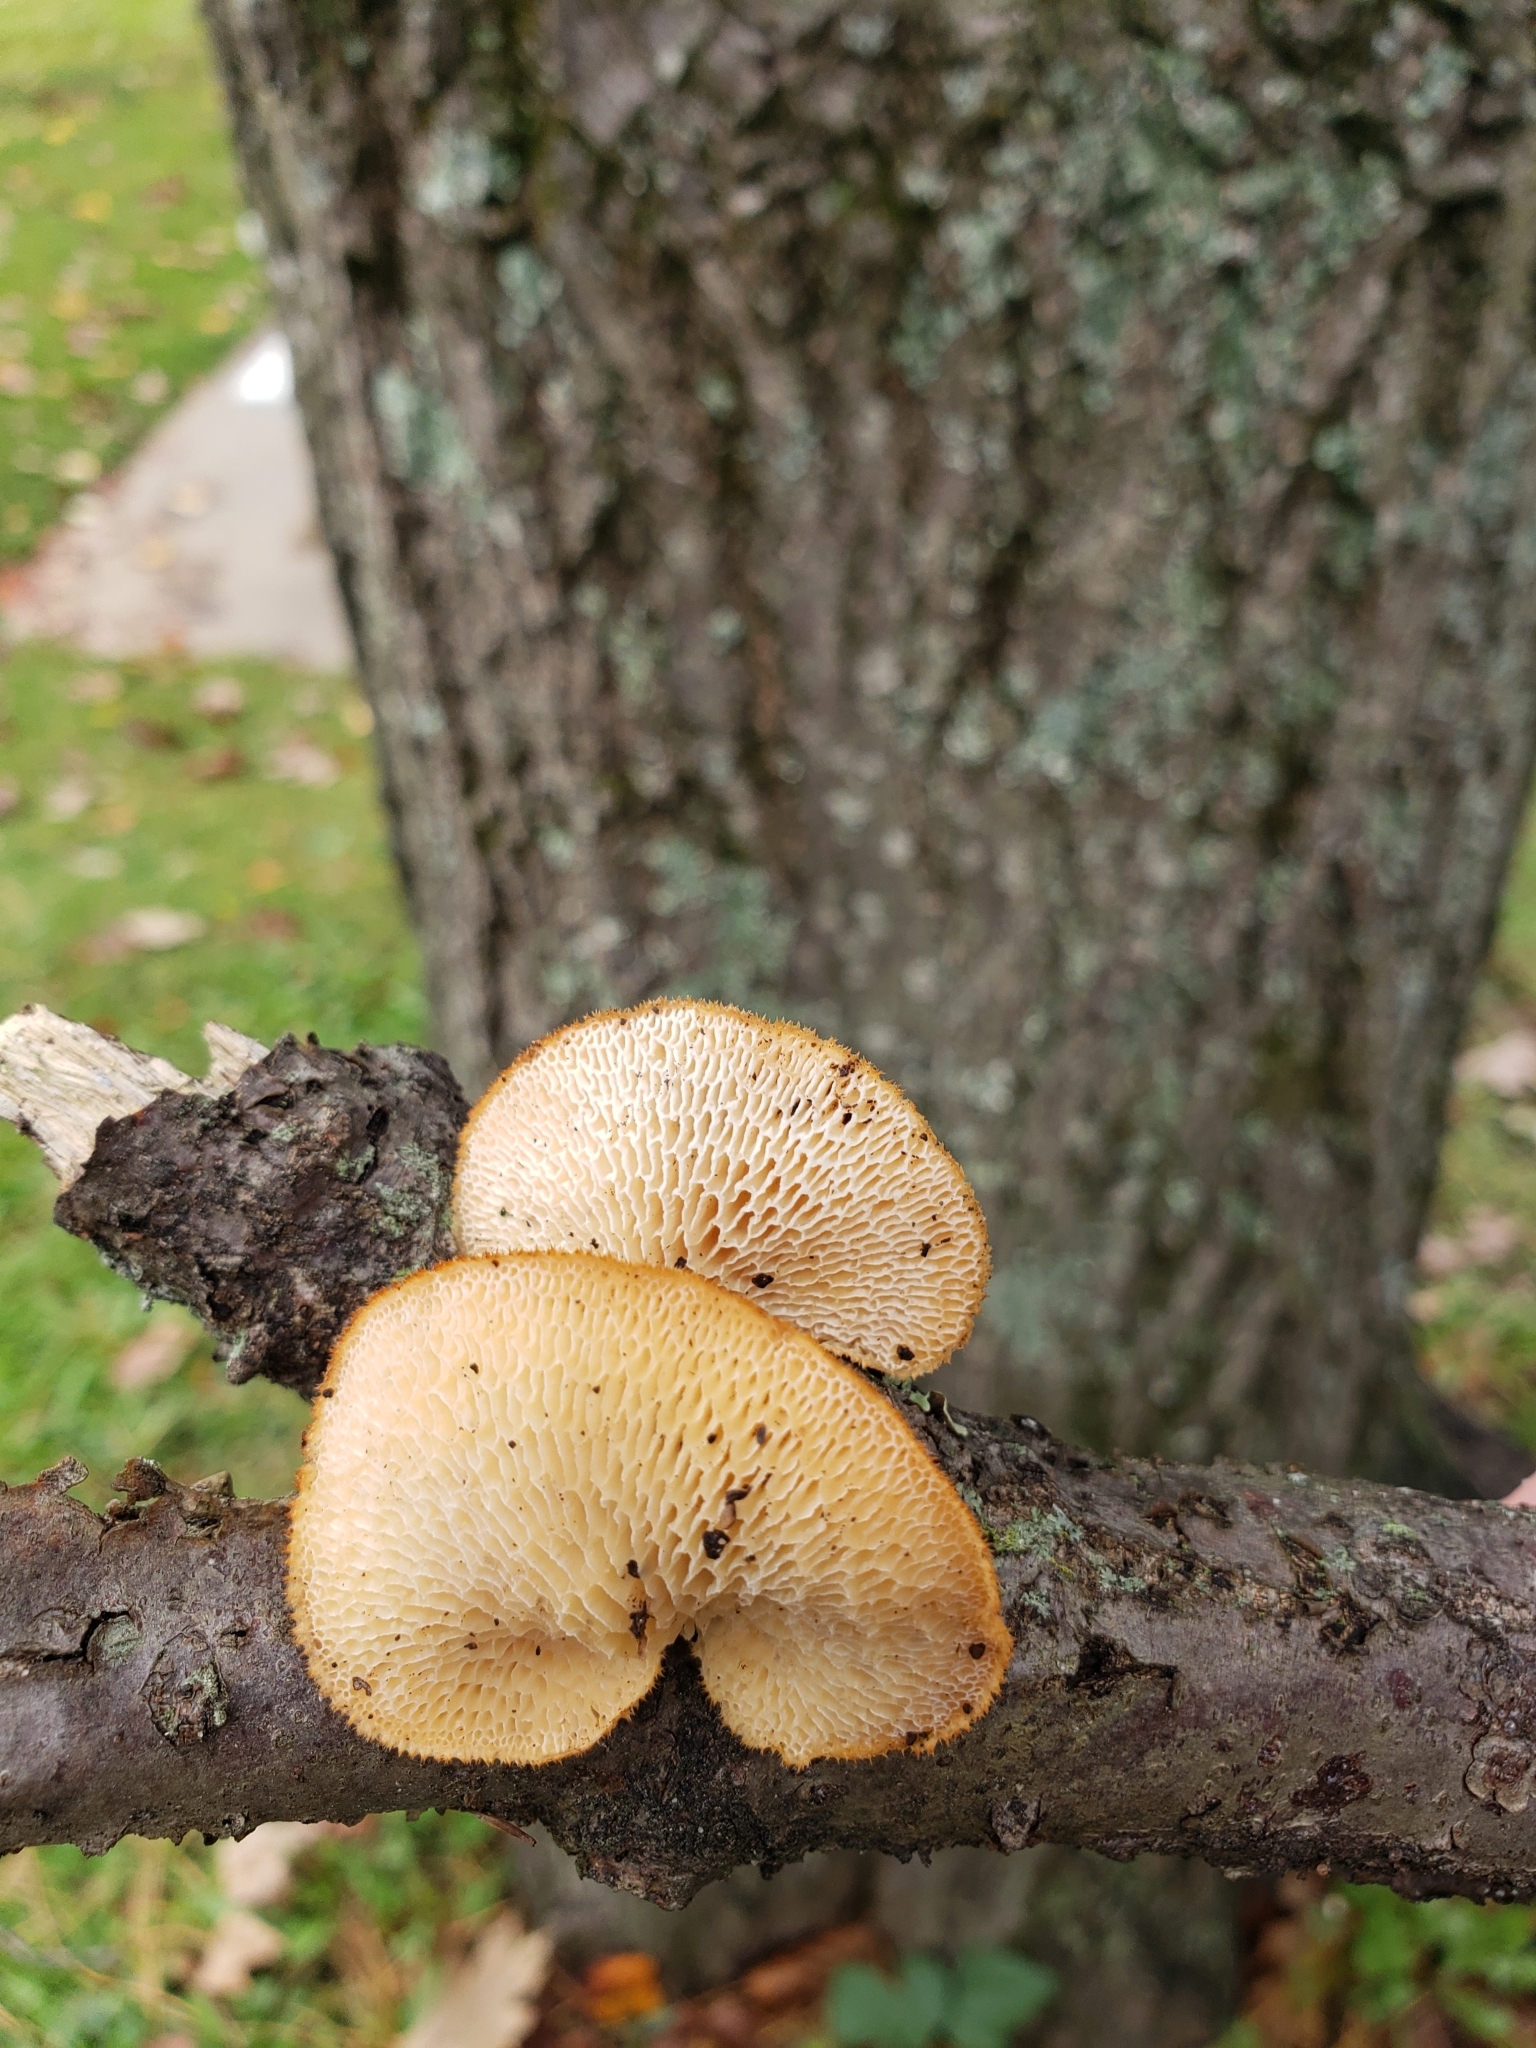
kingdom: Fungi
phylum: Basidiomycota
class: Agaricomycetes
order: Polyporales
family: Polyporaceae
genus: Neofavolus
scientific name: Neofavolus alveolaris
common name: Hexagonal-pored polypore
